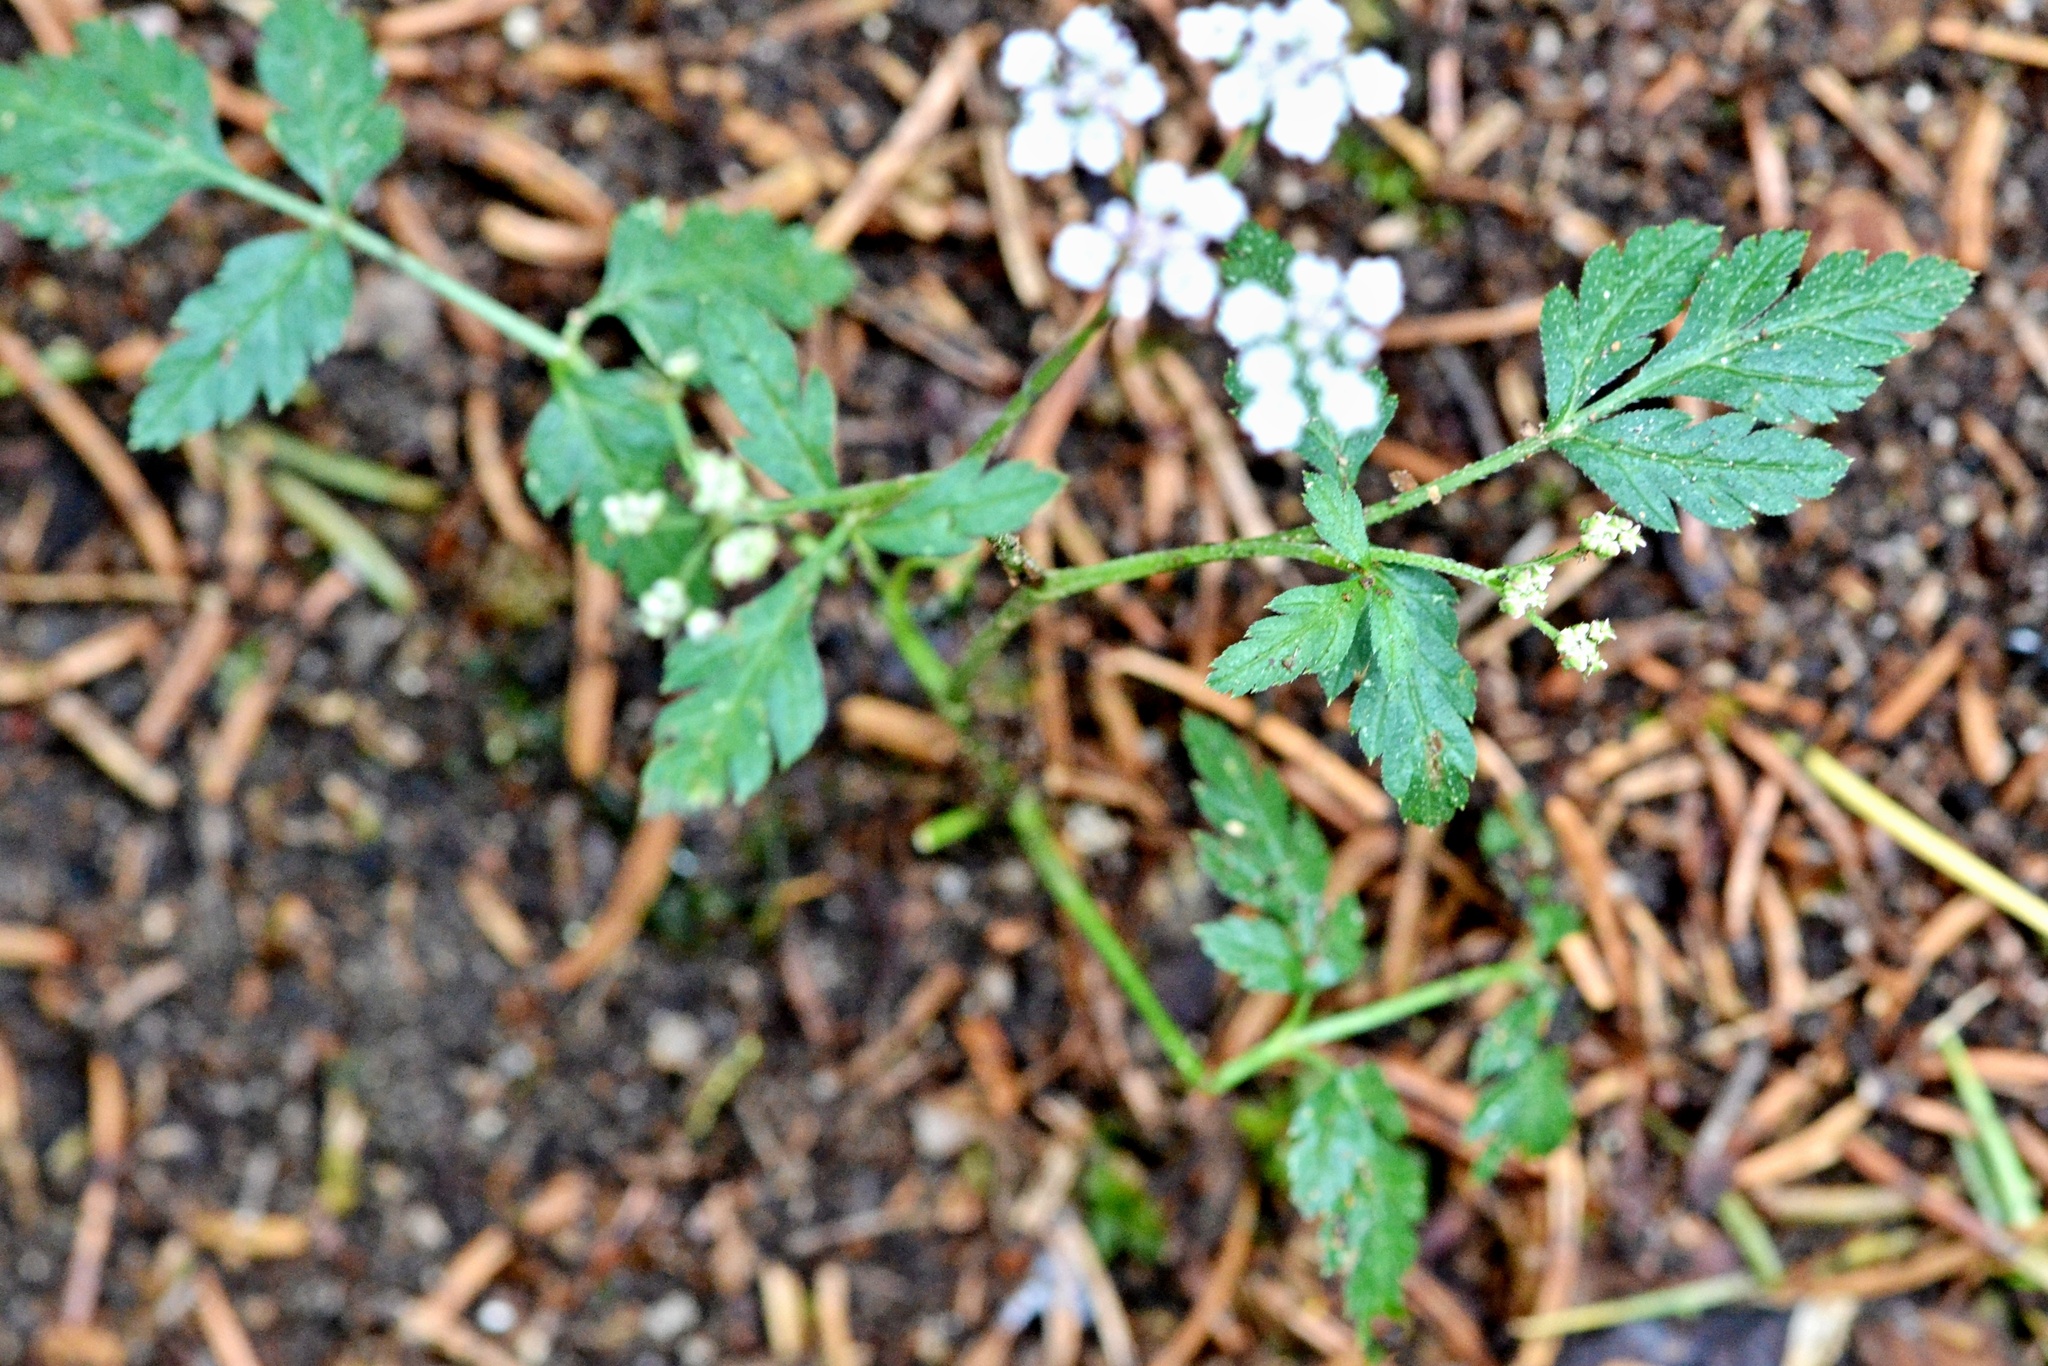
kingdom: Plantae
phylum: Tracheophyta
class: Magnoliopsida
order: Apiales
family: Apiaceae
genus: Torilis
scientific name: Torilis japonica
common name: Upright hedge-parsley
